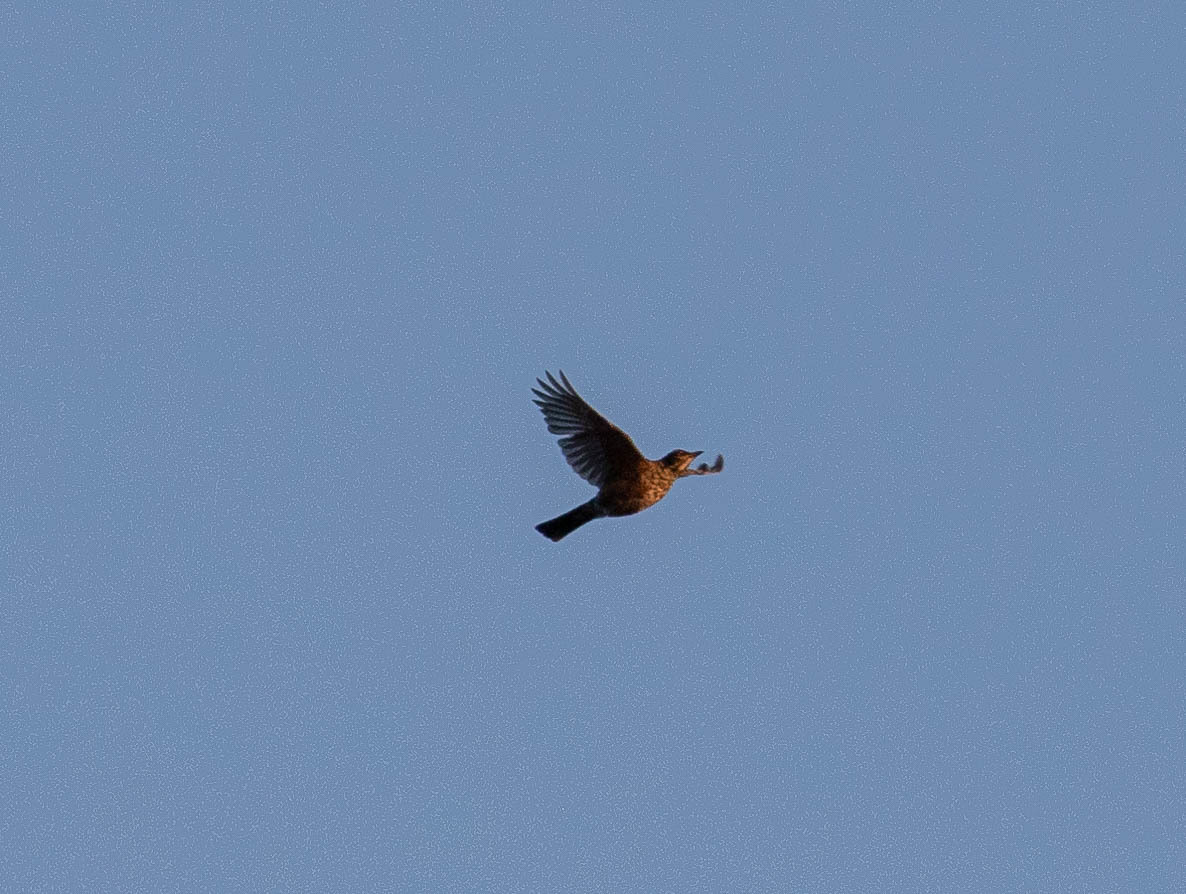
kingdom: Animalia
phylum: Chordata
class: Aves
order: Passeriformes
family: Turdidae
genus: Turdus
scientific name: Turdus migratorius
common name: American robin
